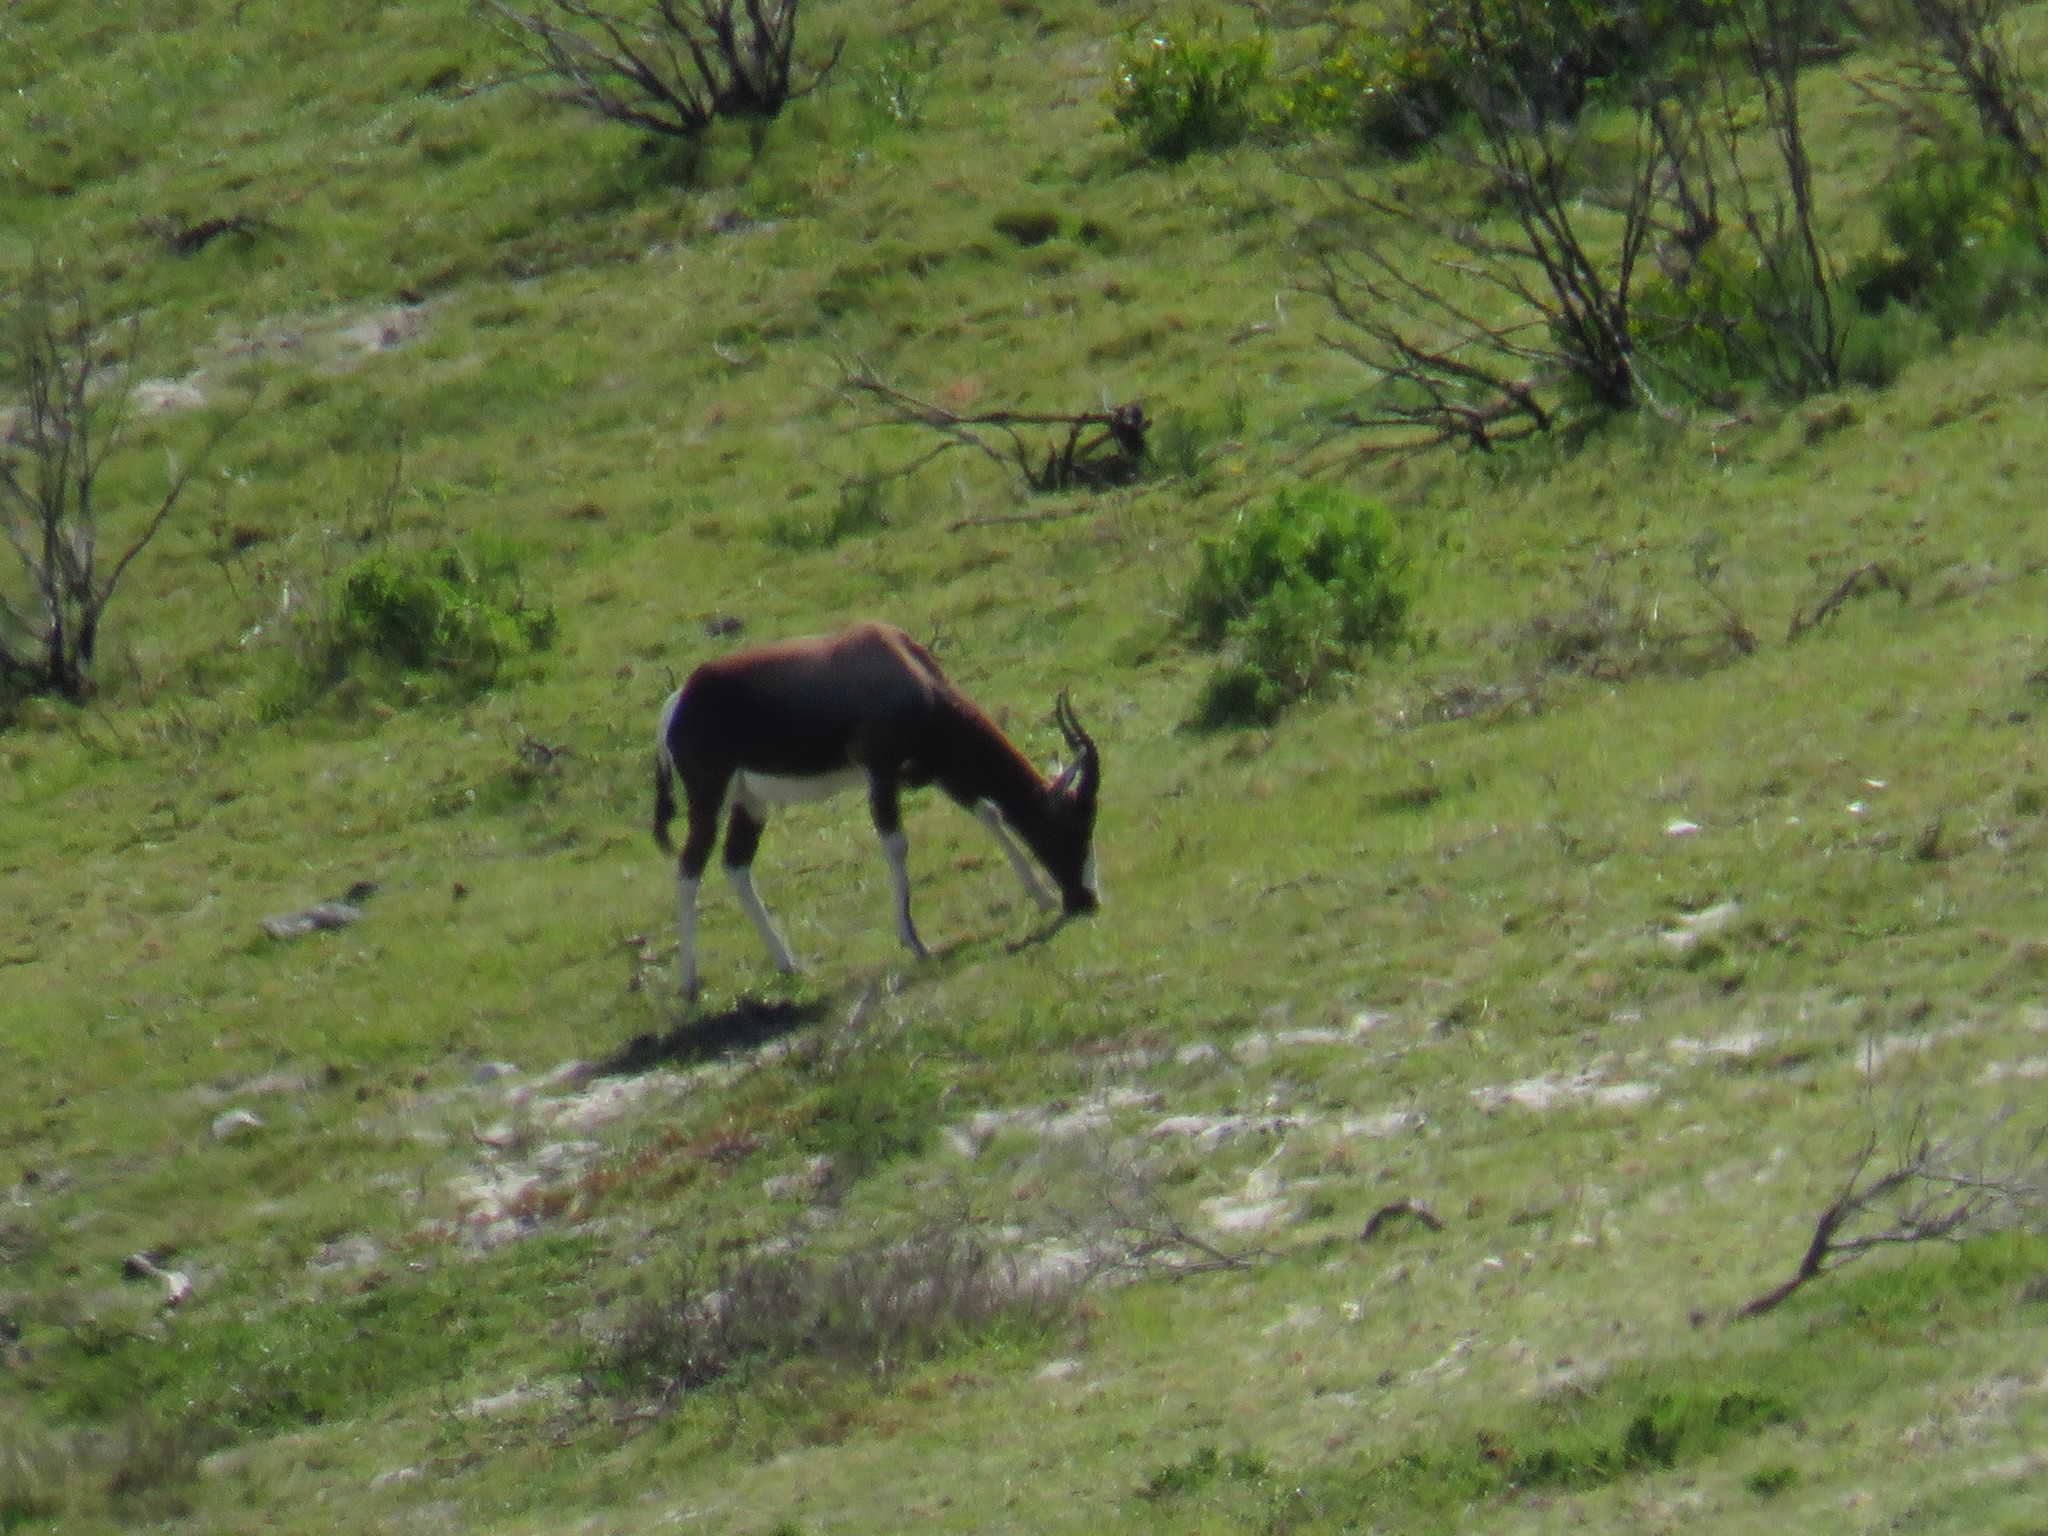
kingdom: Animalia
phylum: Chordata
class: Mammalia
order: Artiodactyla
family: Bovidae
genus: Damaliscus
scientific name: Damaliscus pygargus
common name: Bontebok
